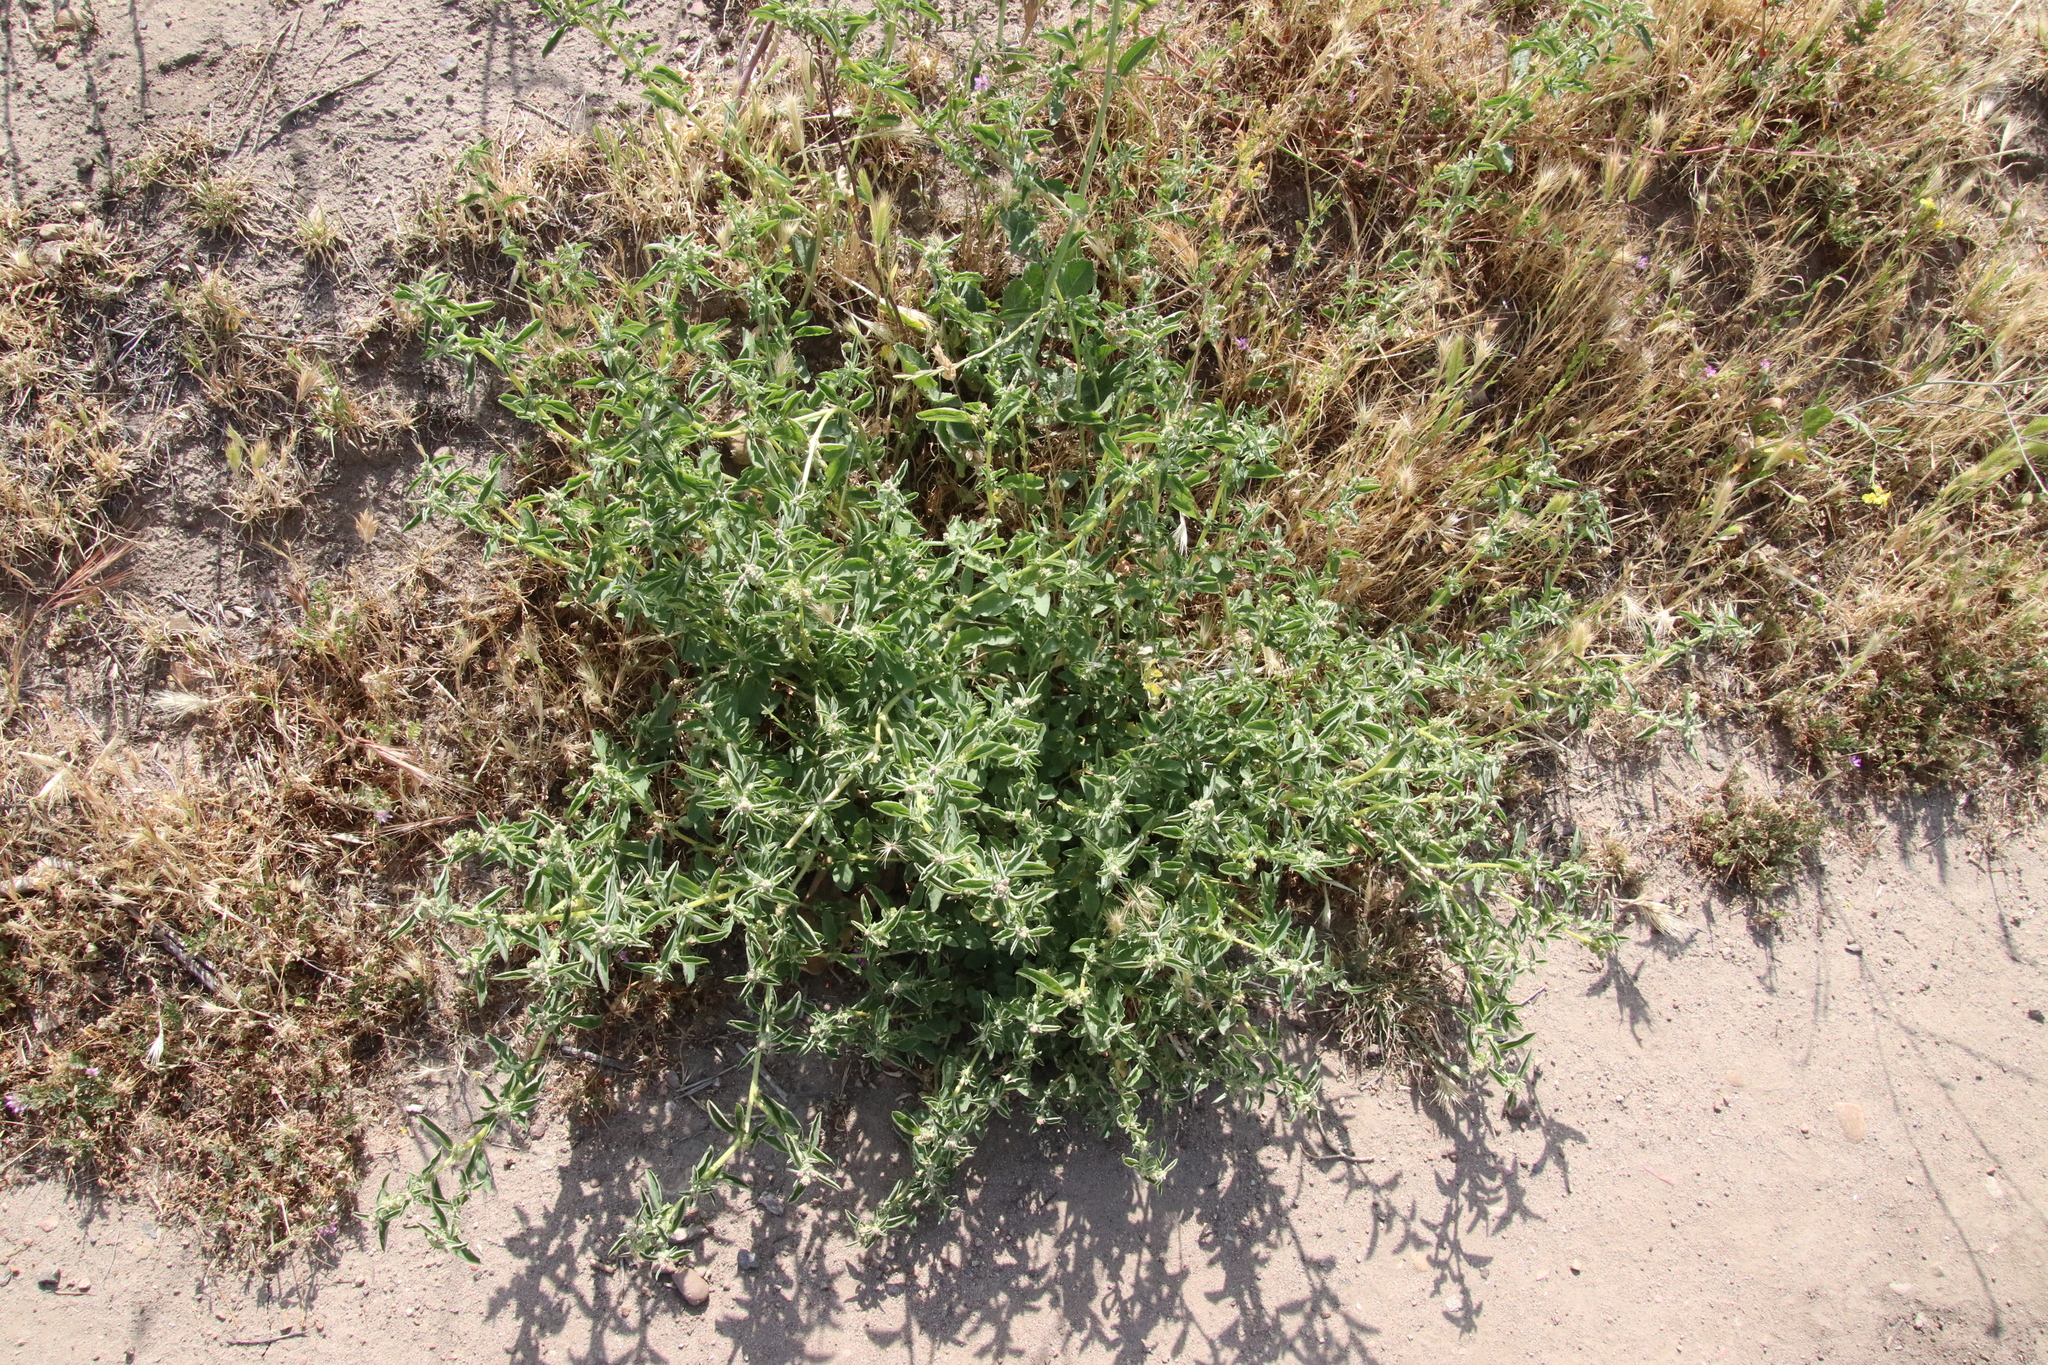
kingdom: Plantae
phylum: Tracheophyta
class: Magnoliopsida
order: Caryophyllales
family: Amaranthaceae
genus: Atriplex
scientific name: Atriplex suberecta
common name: Australian orache
